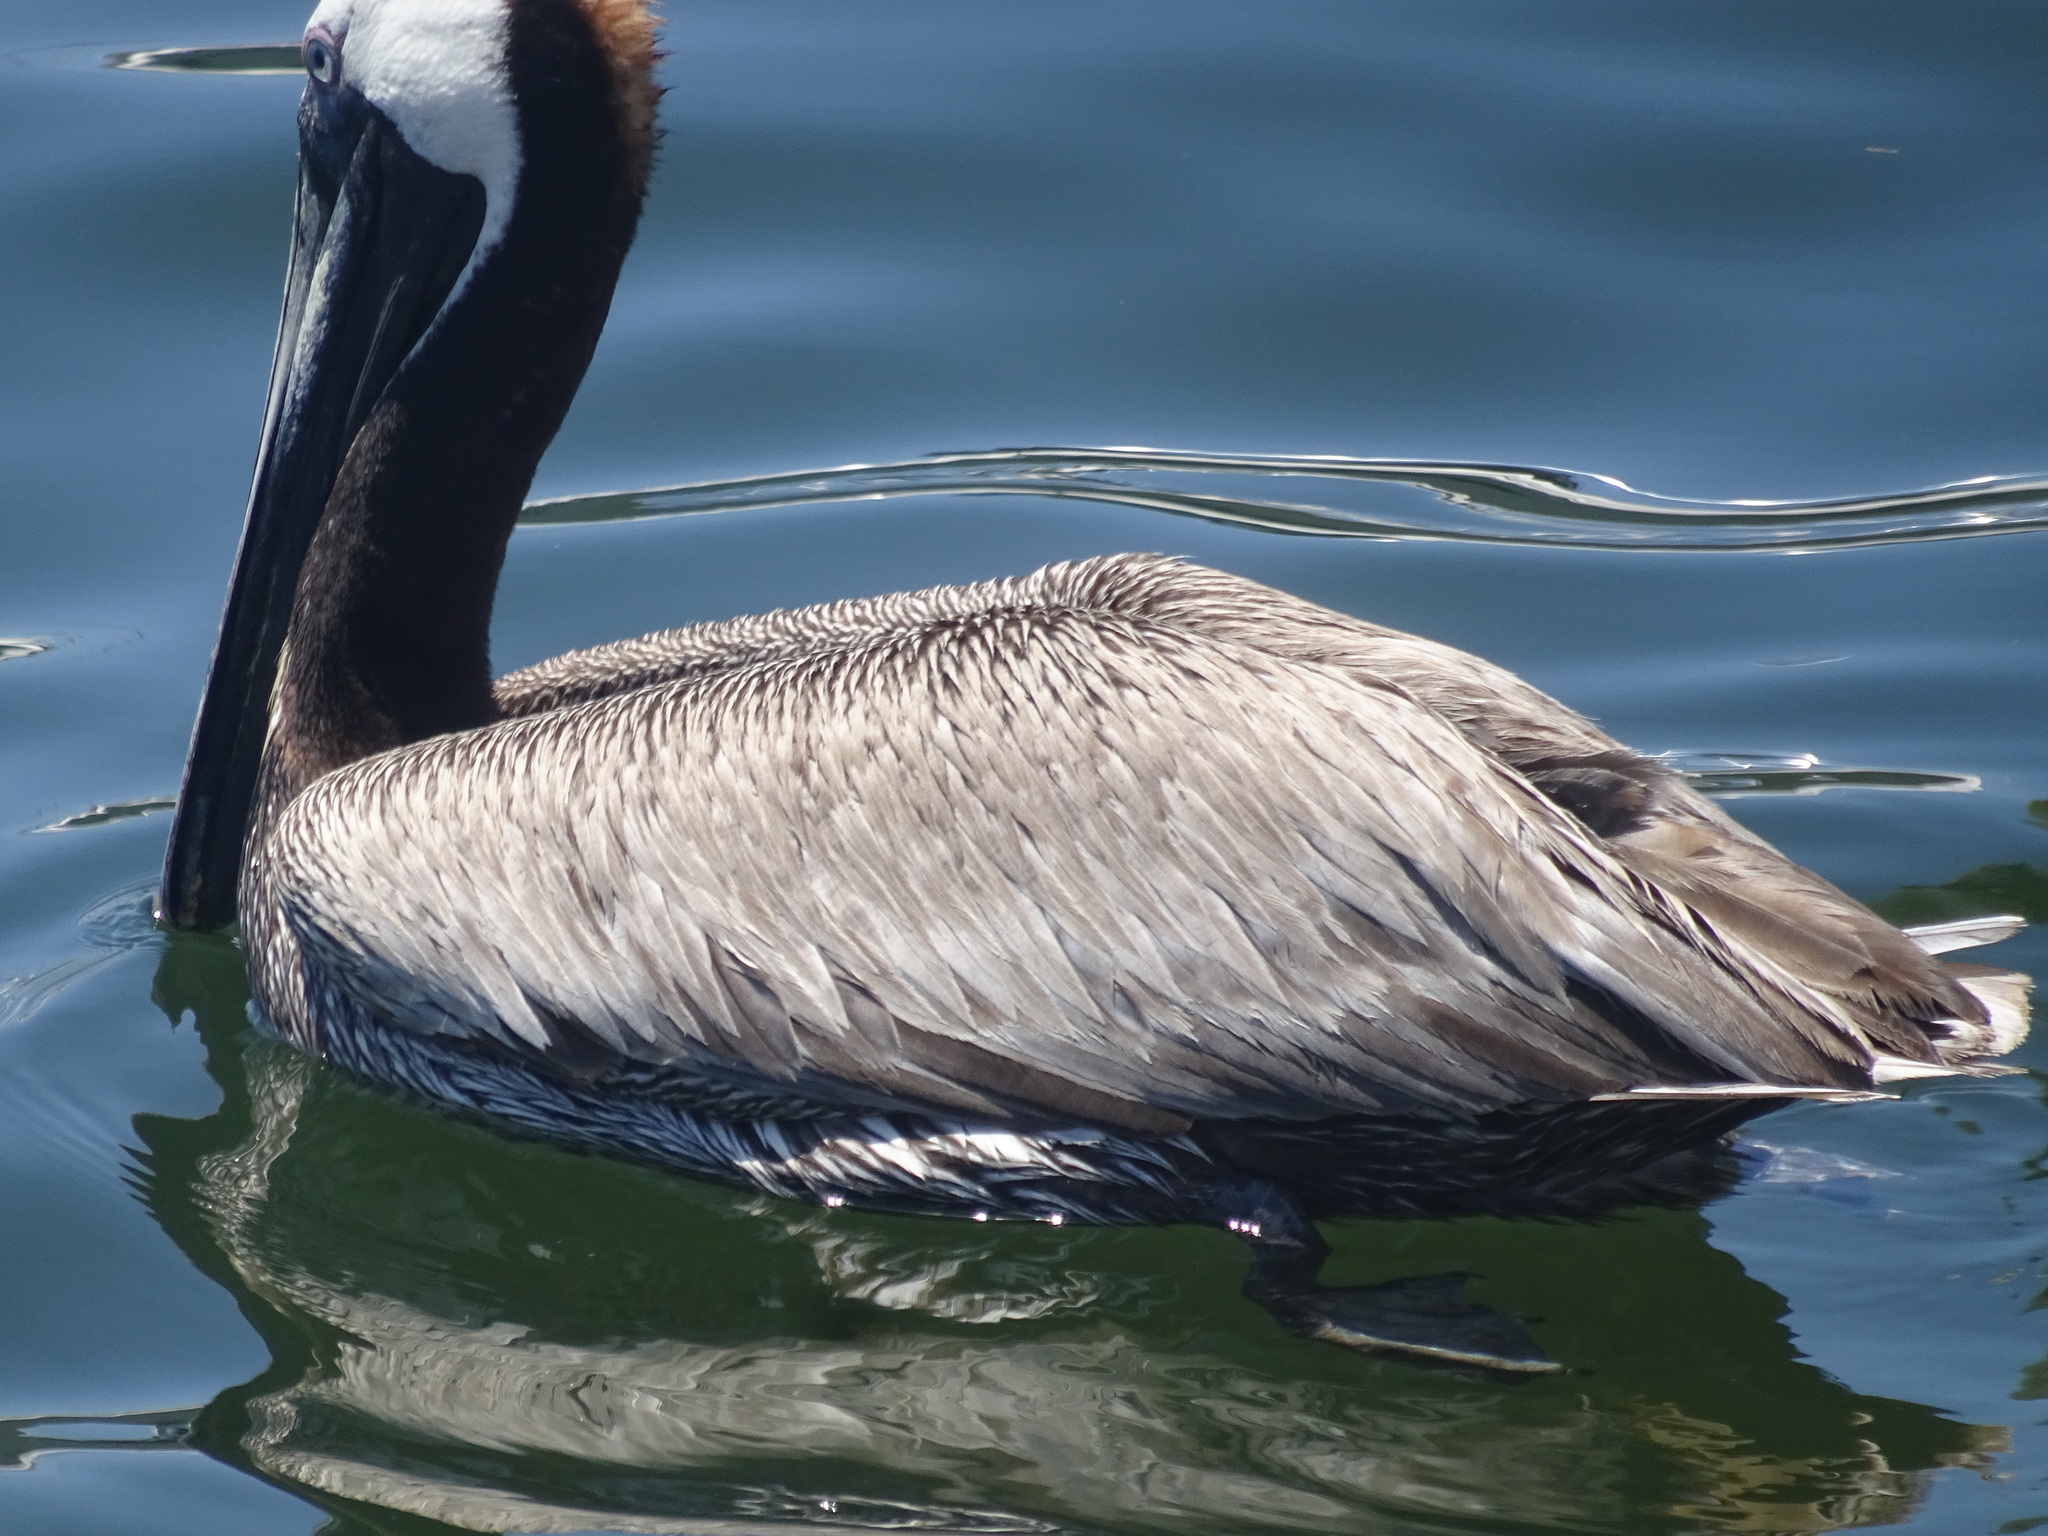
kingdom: Animalia
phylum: Chordata
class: Aves
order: Pelecaniformes
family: Pelecanidae
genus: Pelecanus
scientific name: Pelecanus occidentalis
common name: Brown pelican
